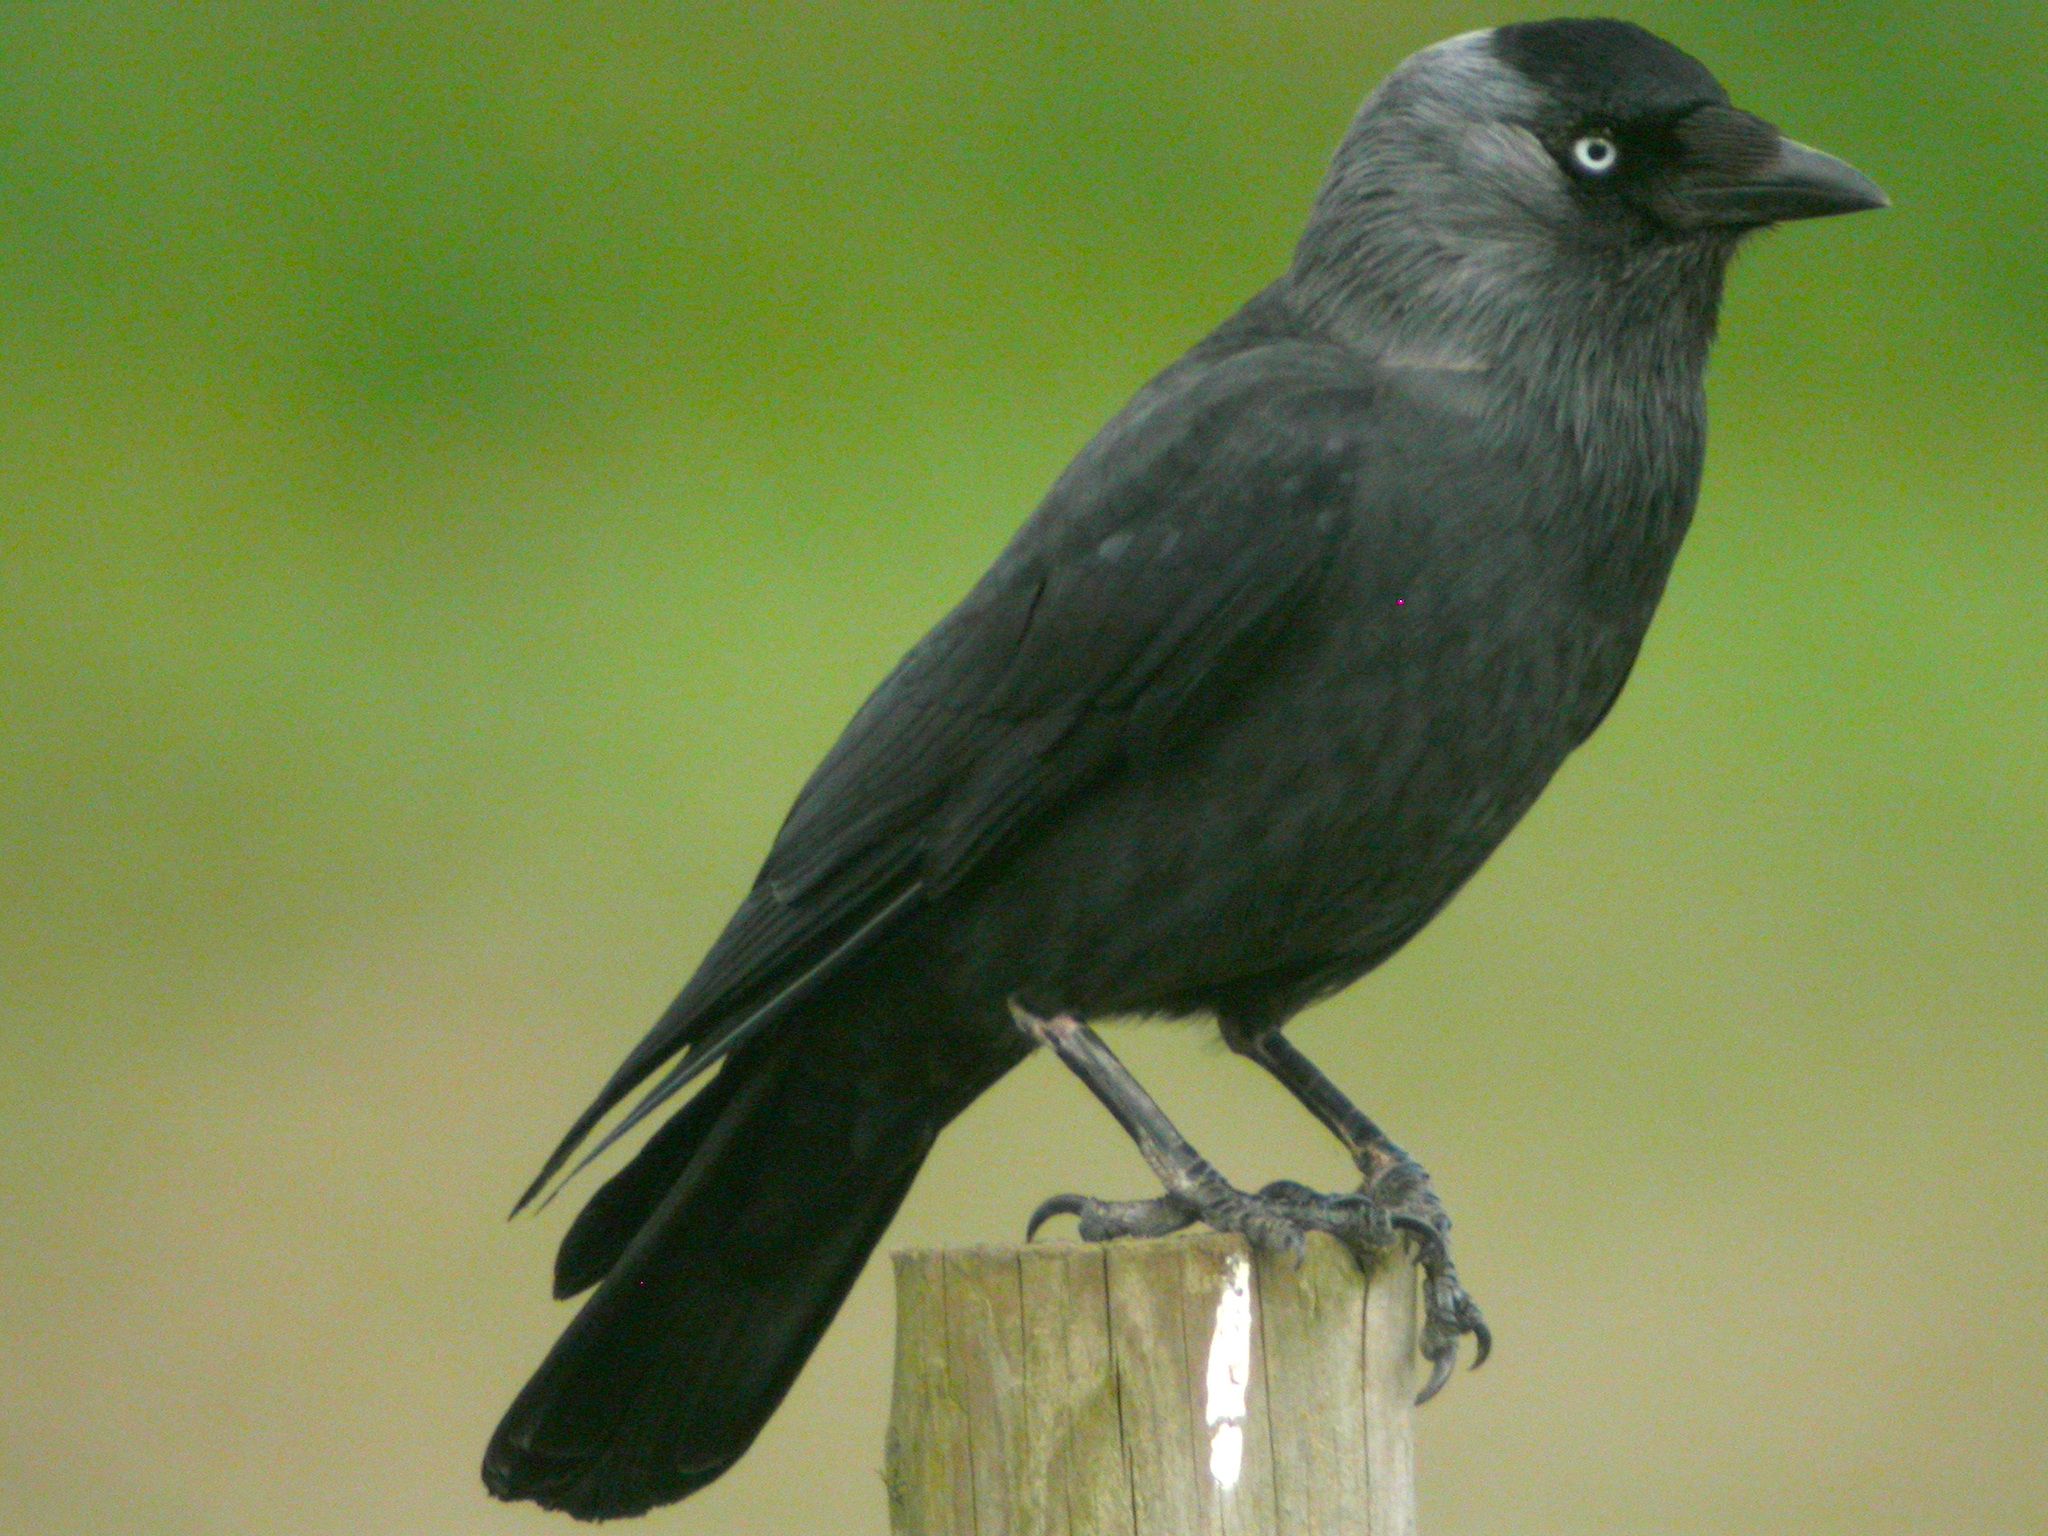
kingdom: Animalia
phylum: Chordata
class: Aves
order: Passeriformes
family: Corvidae
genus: Coloeus
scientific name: Coloeus monedula
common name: Western jackdaw
